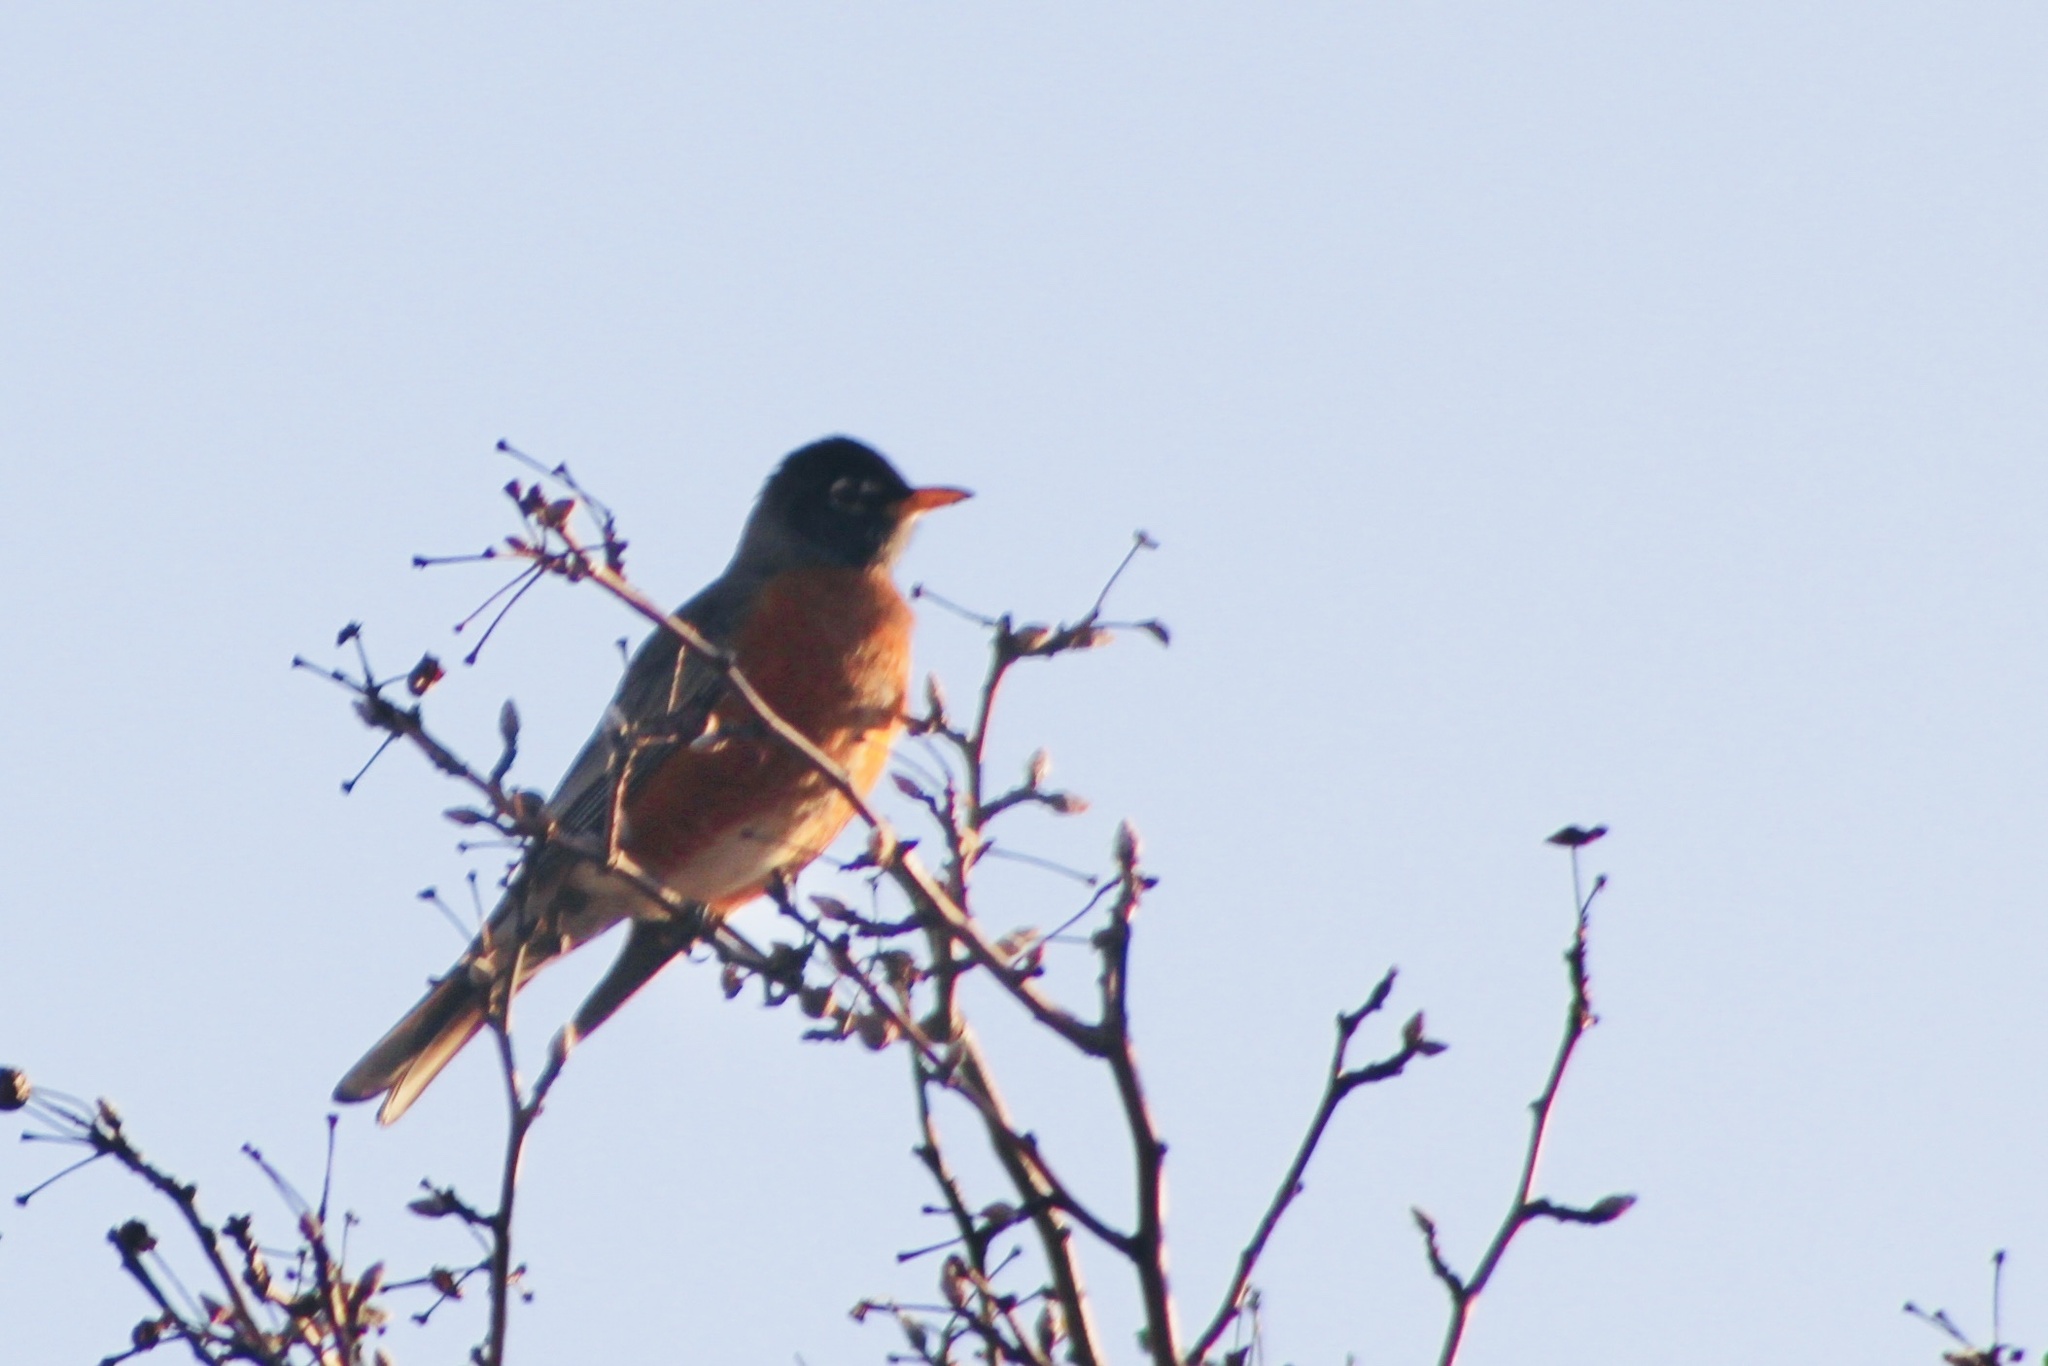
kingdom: Animalia
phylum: Chordata
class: Aves
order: Passeriformes
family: Turdidae
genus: Turdus
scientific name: Turdus migratorius
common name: American robin
